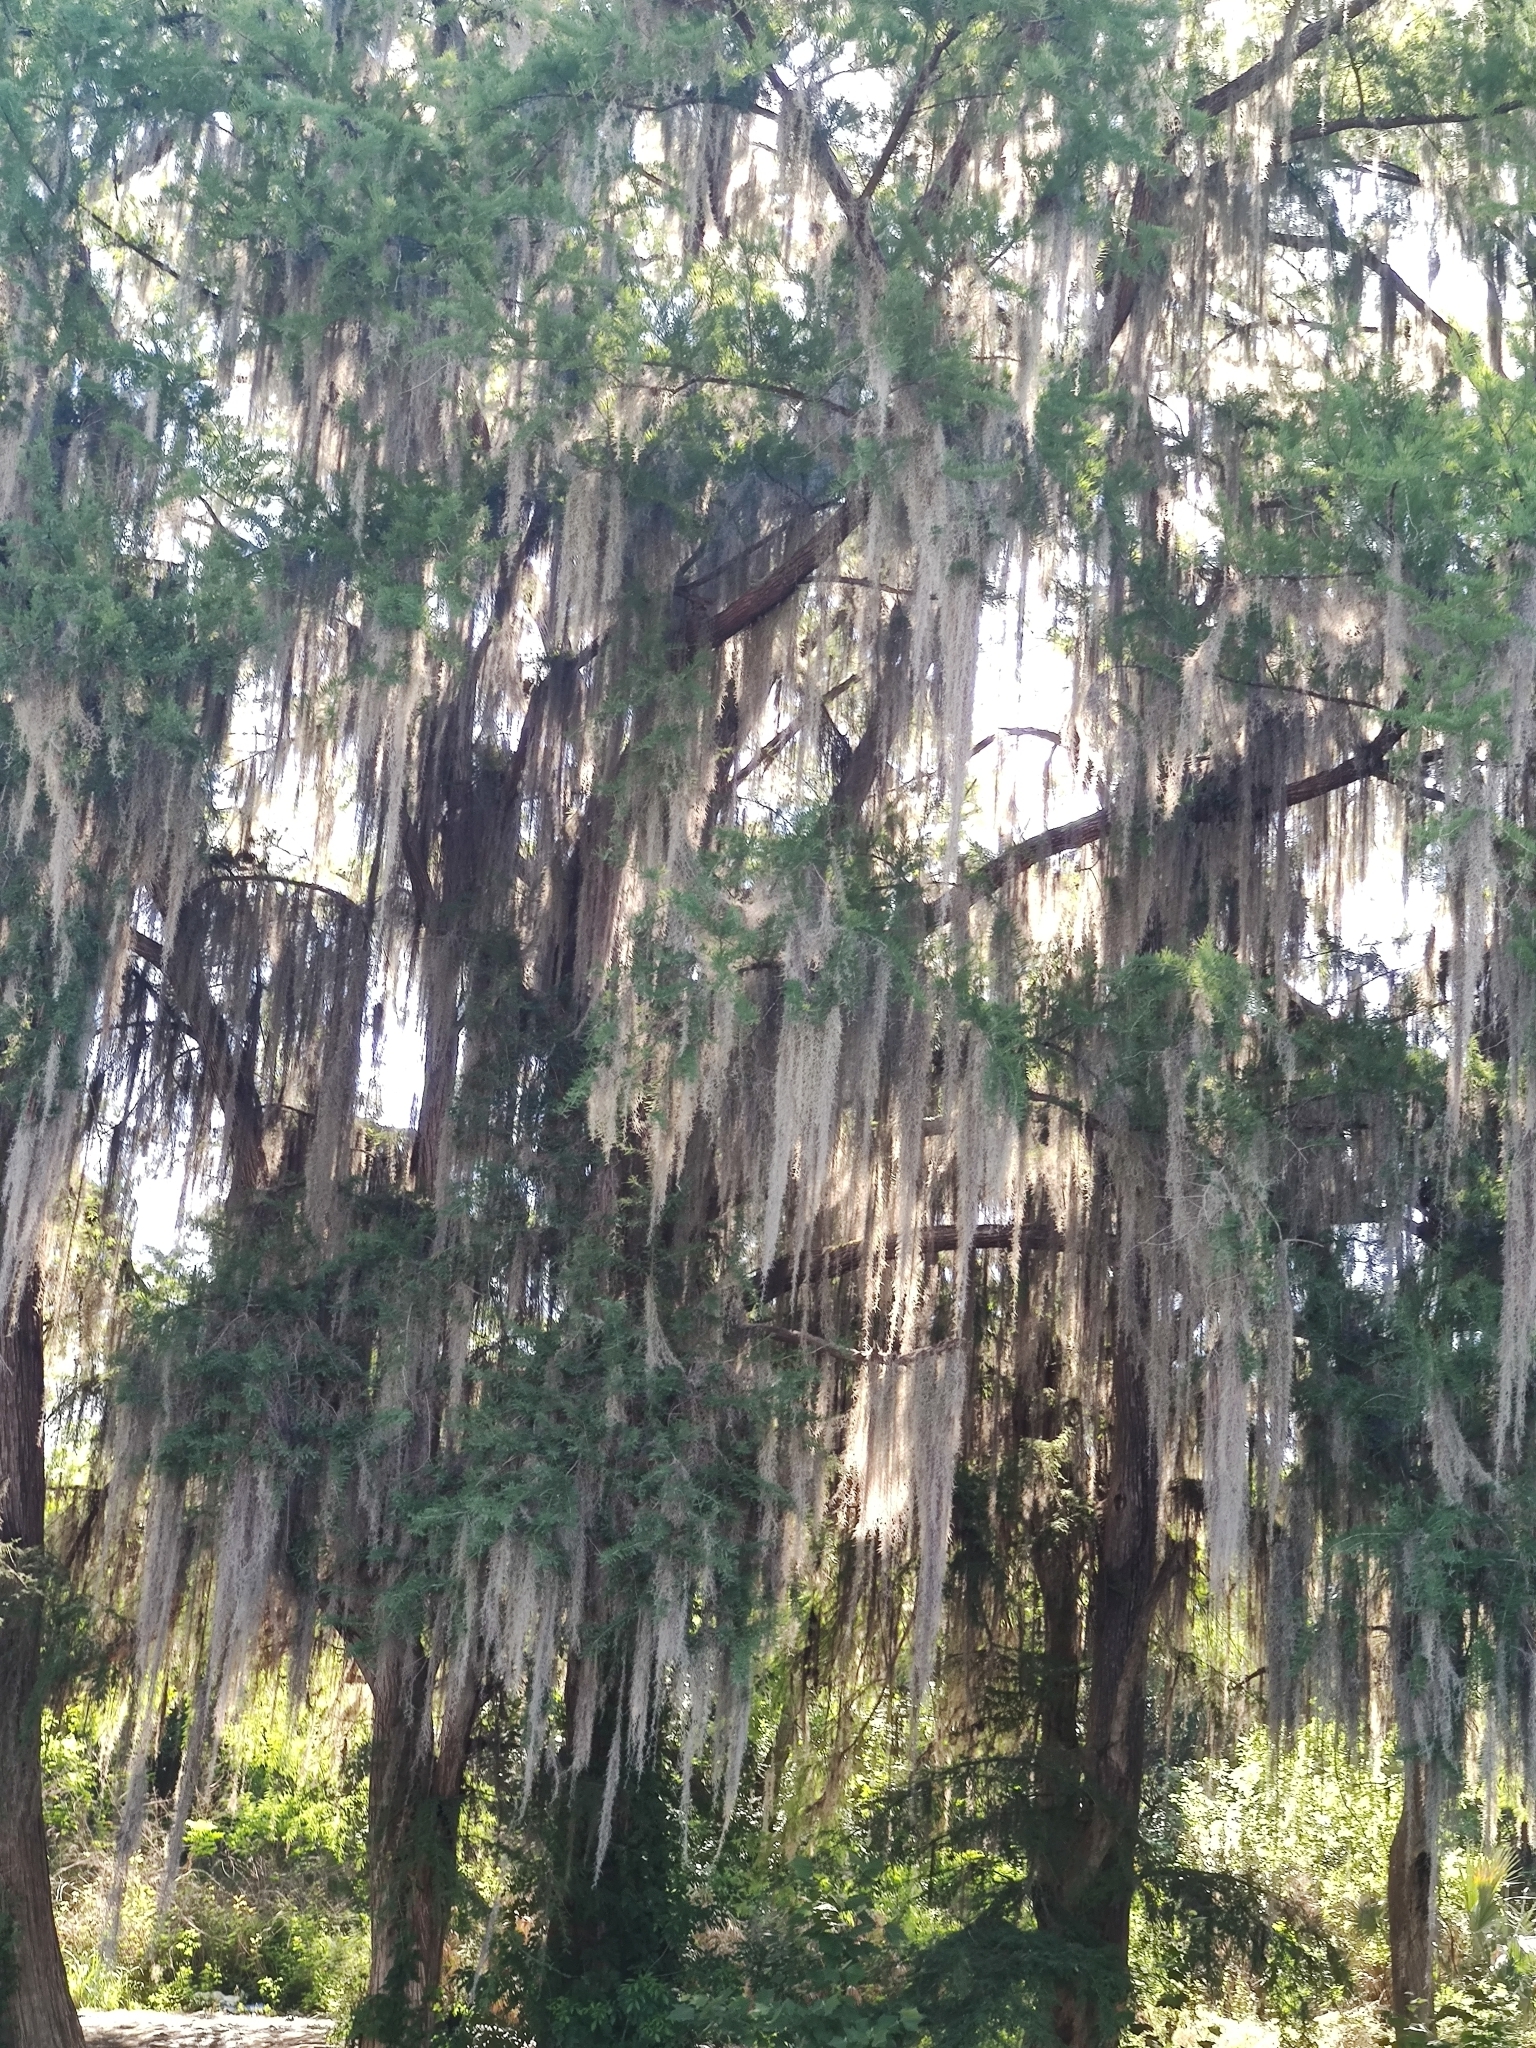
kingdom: Plantae
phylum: Tracheophyta
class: Liliopsida
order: Poales
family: Bromeliaceae
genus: Tillandsia
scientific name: Tillandsia usneoides
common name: Spanish moss
